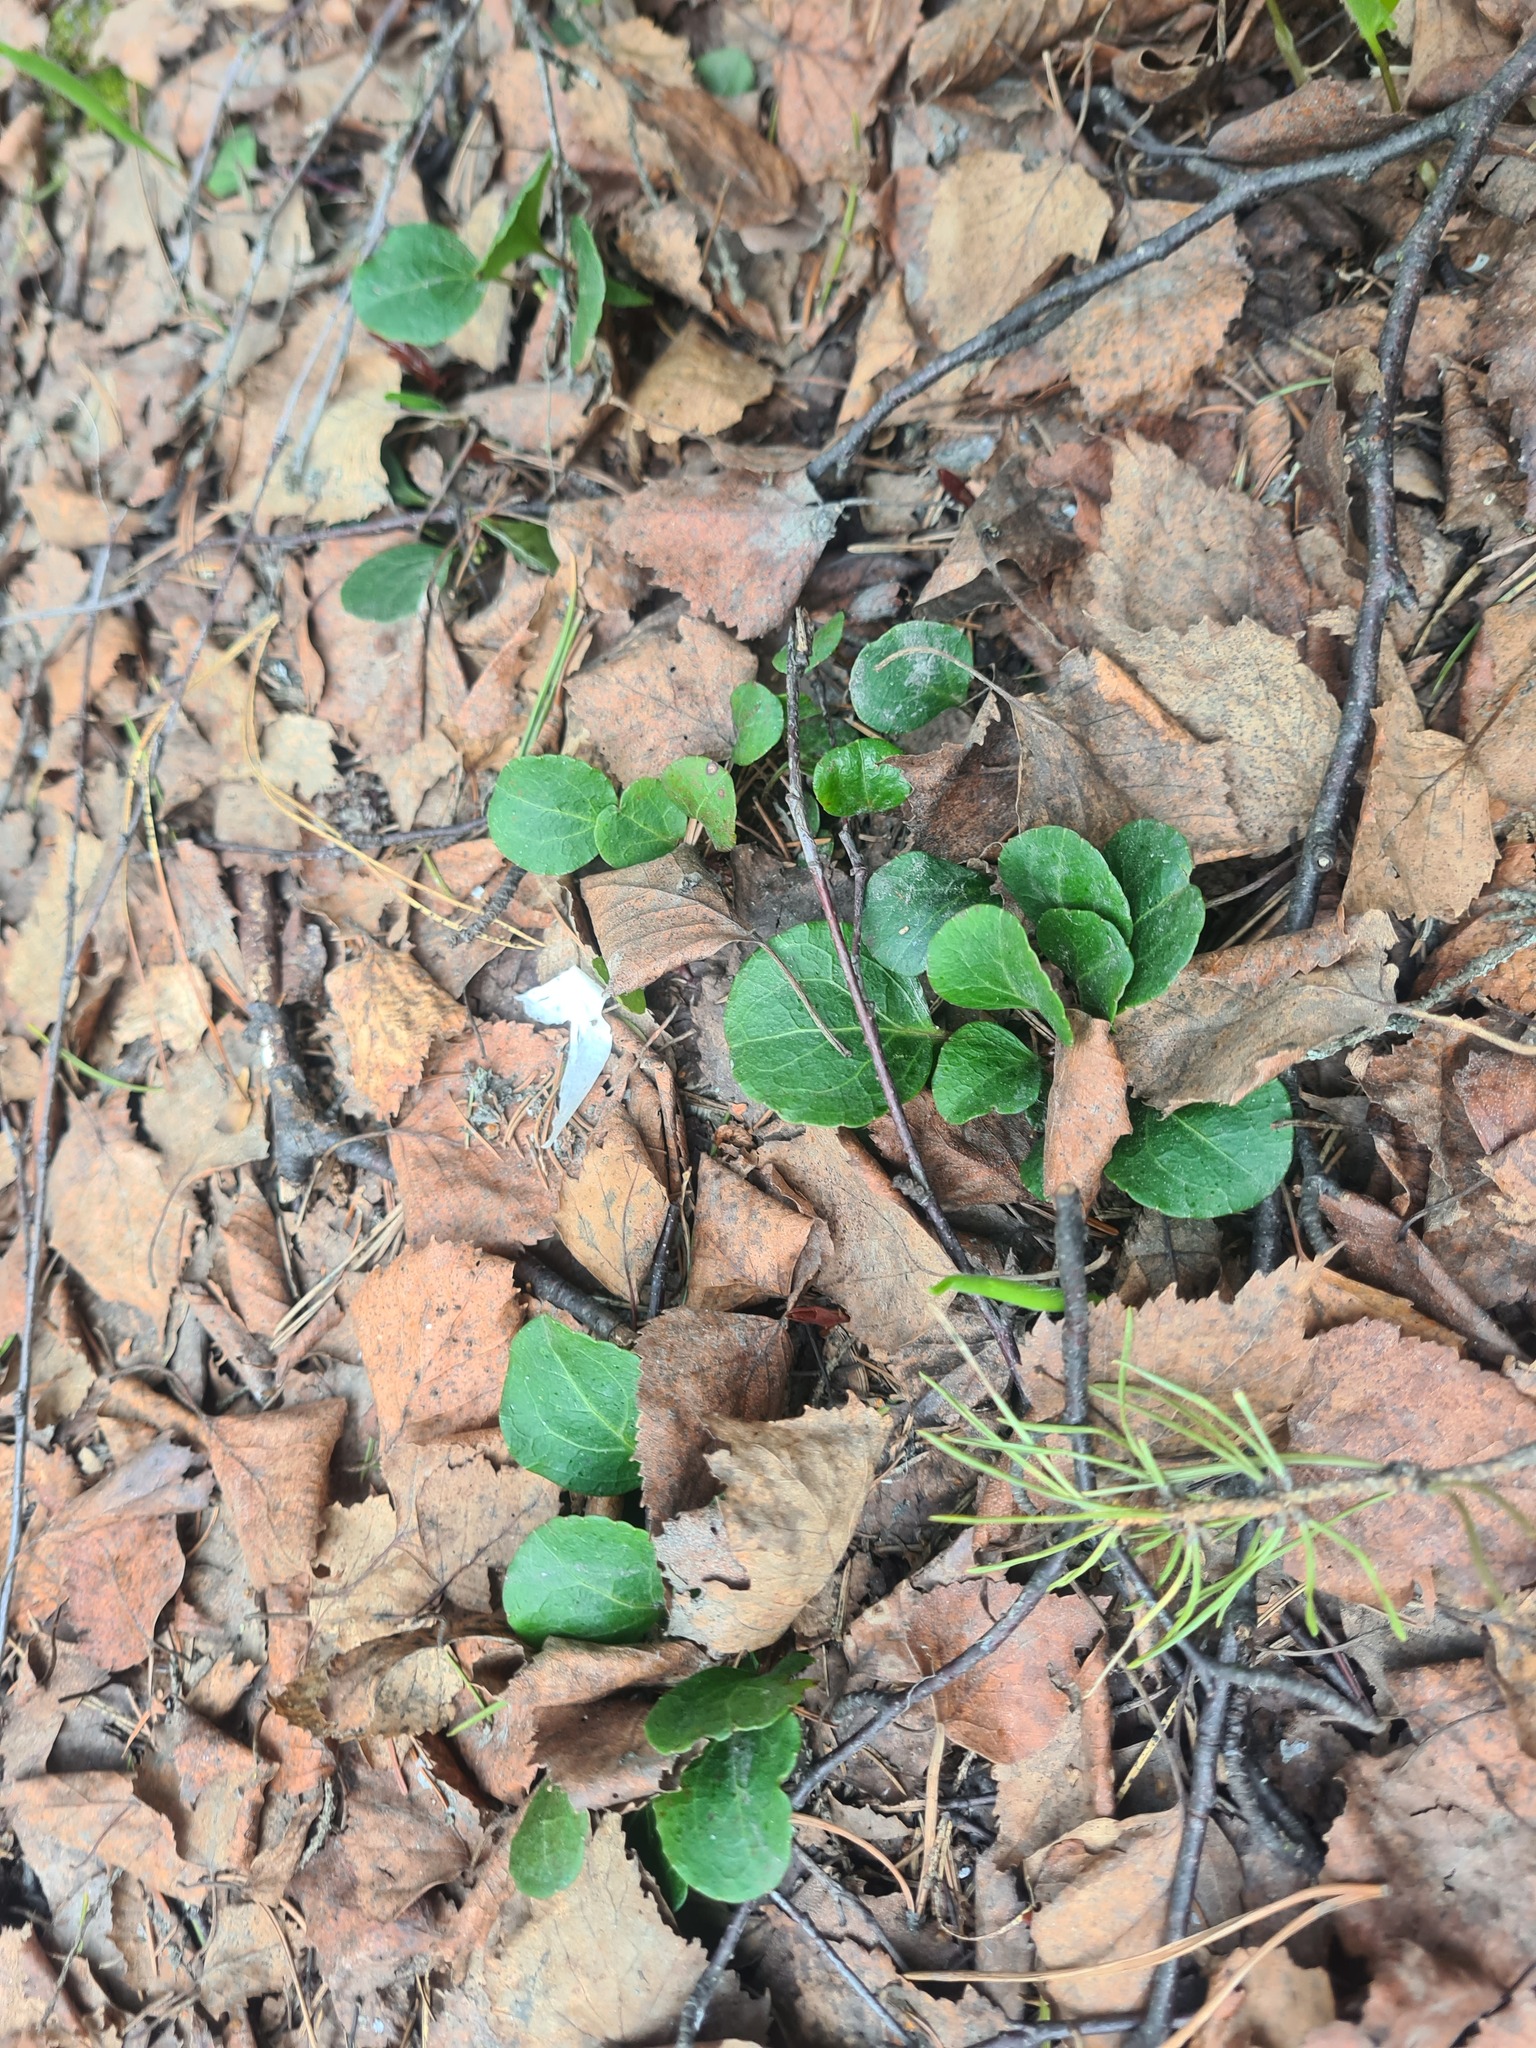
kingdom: Plantae
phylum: Tracheophyta
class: Magnoliopsida
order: Ericales
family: Ericaceae
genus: Pyrola
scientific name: Pyrola chlorantha
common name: Green wintergreen
